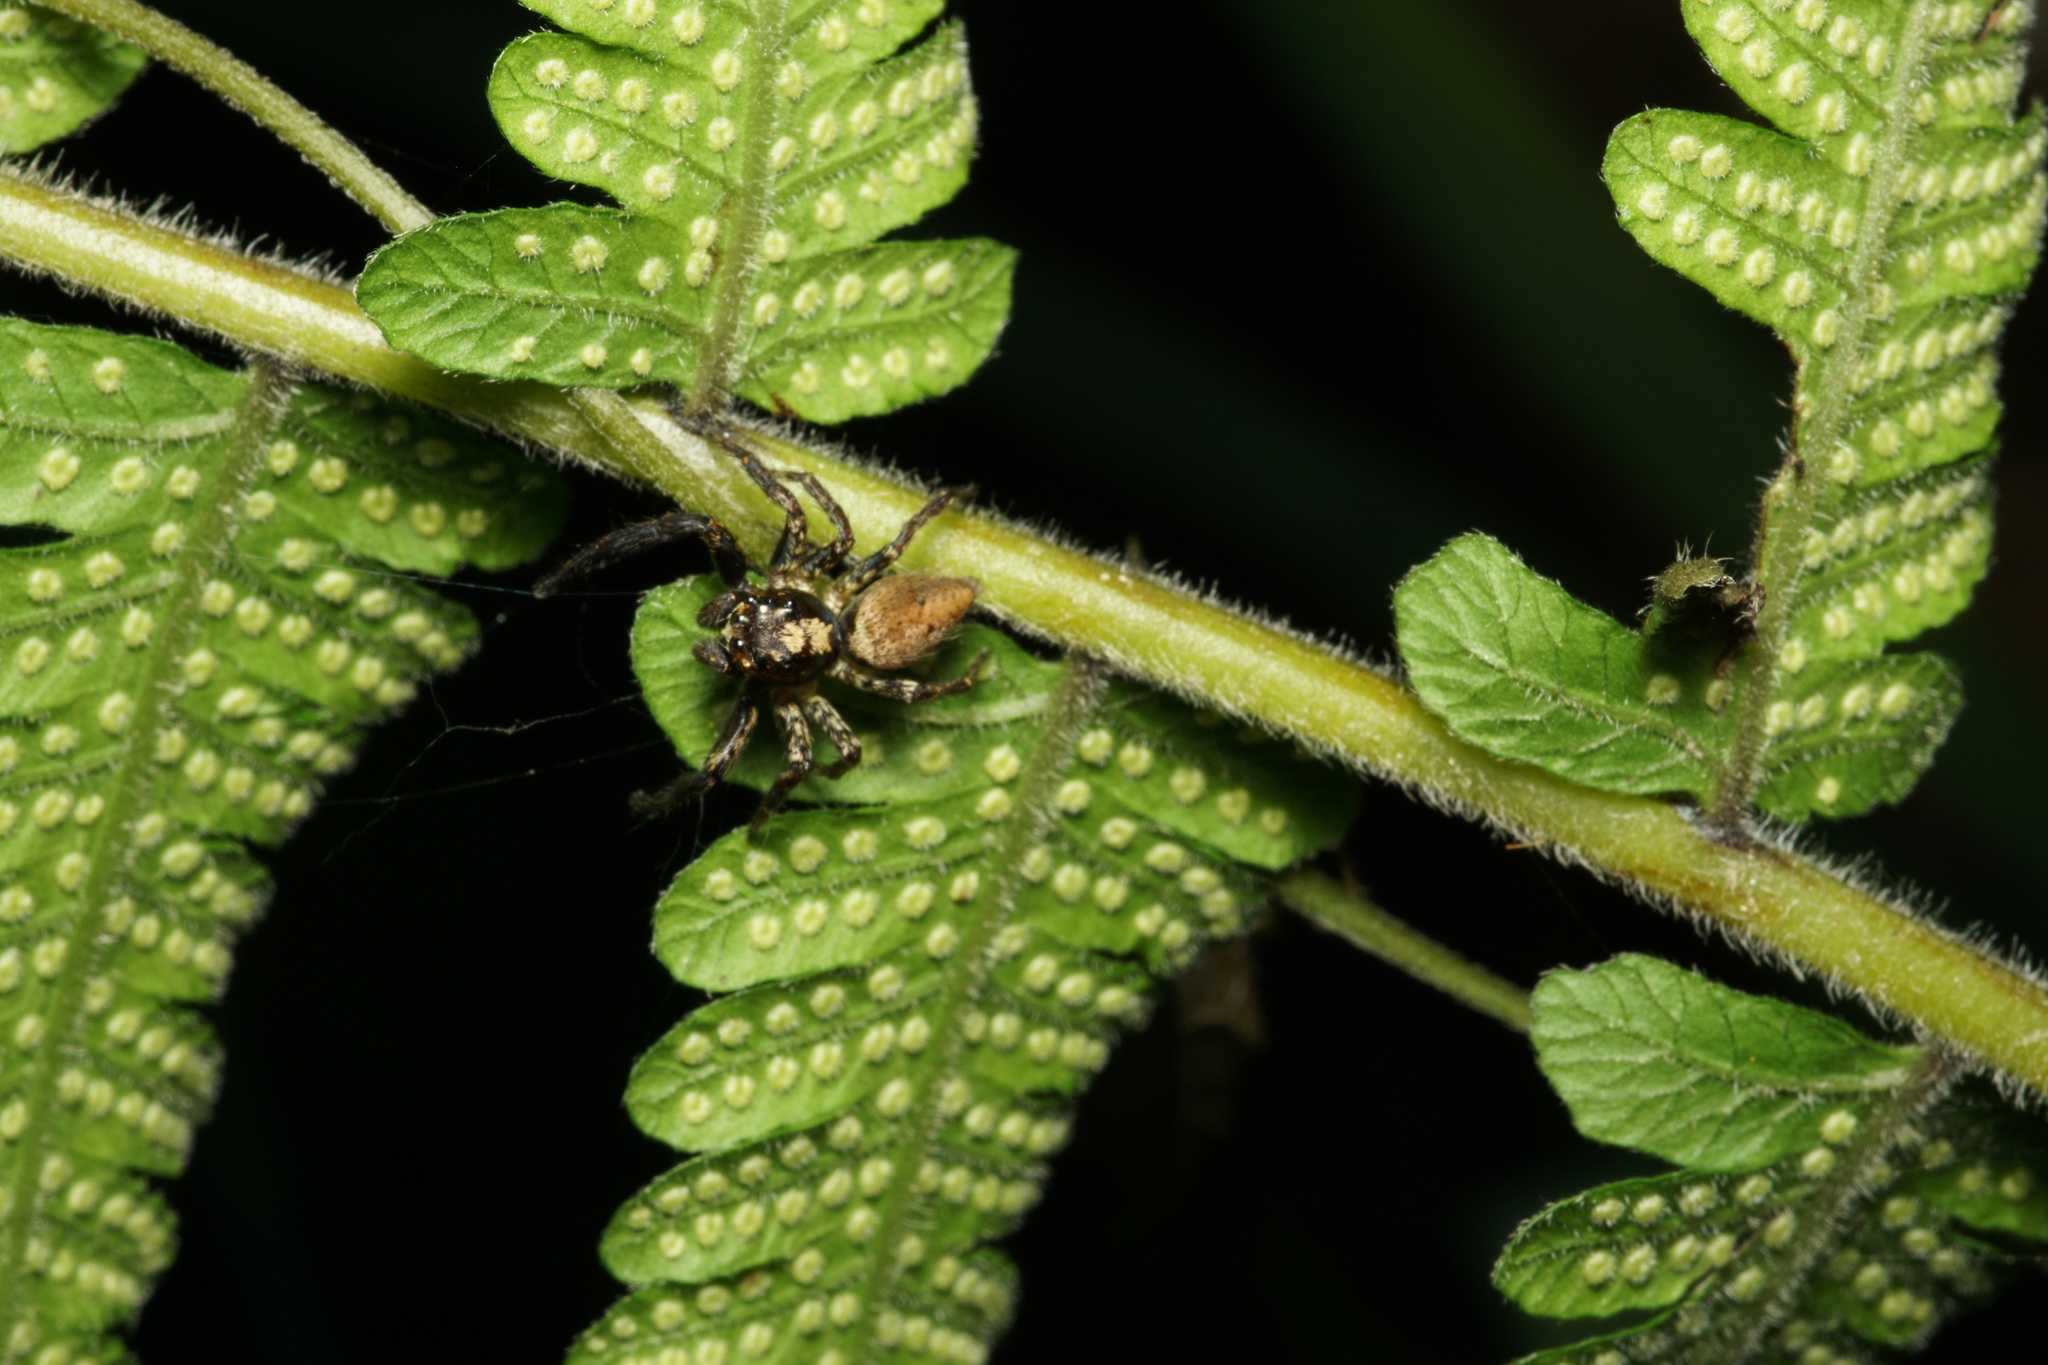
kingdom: Animalia
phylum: Arthropoda
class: Arachnida
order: Araneae
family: Salticidae
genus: Asaphobelis
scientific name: Asaphobelis physonychus
